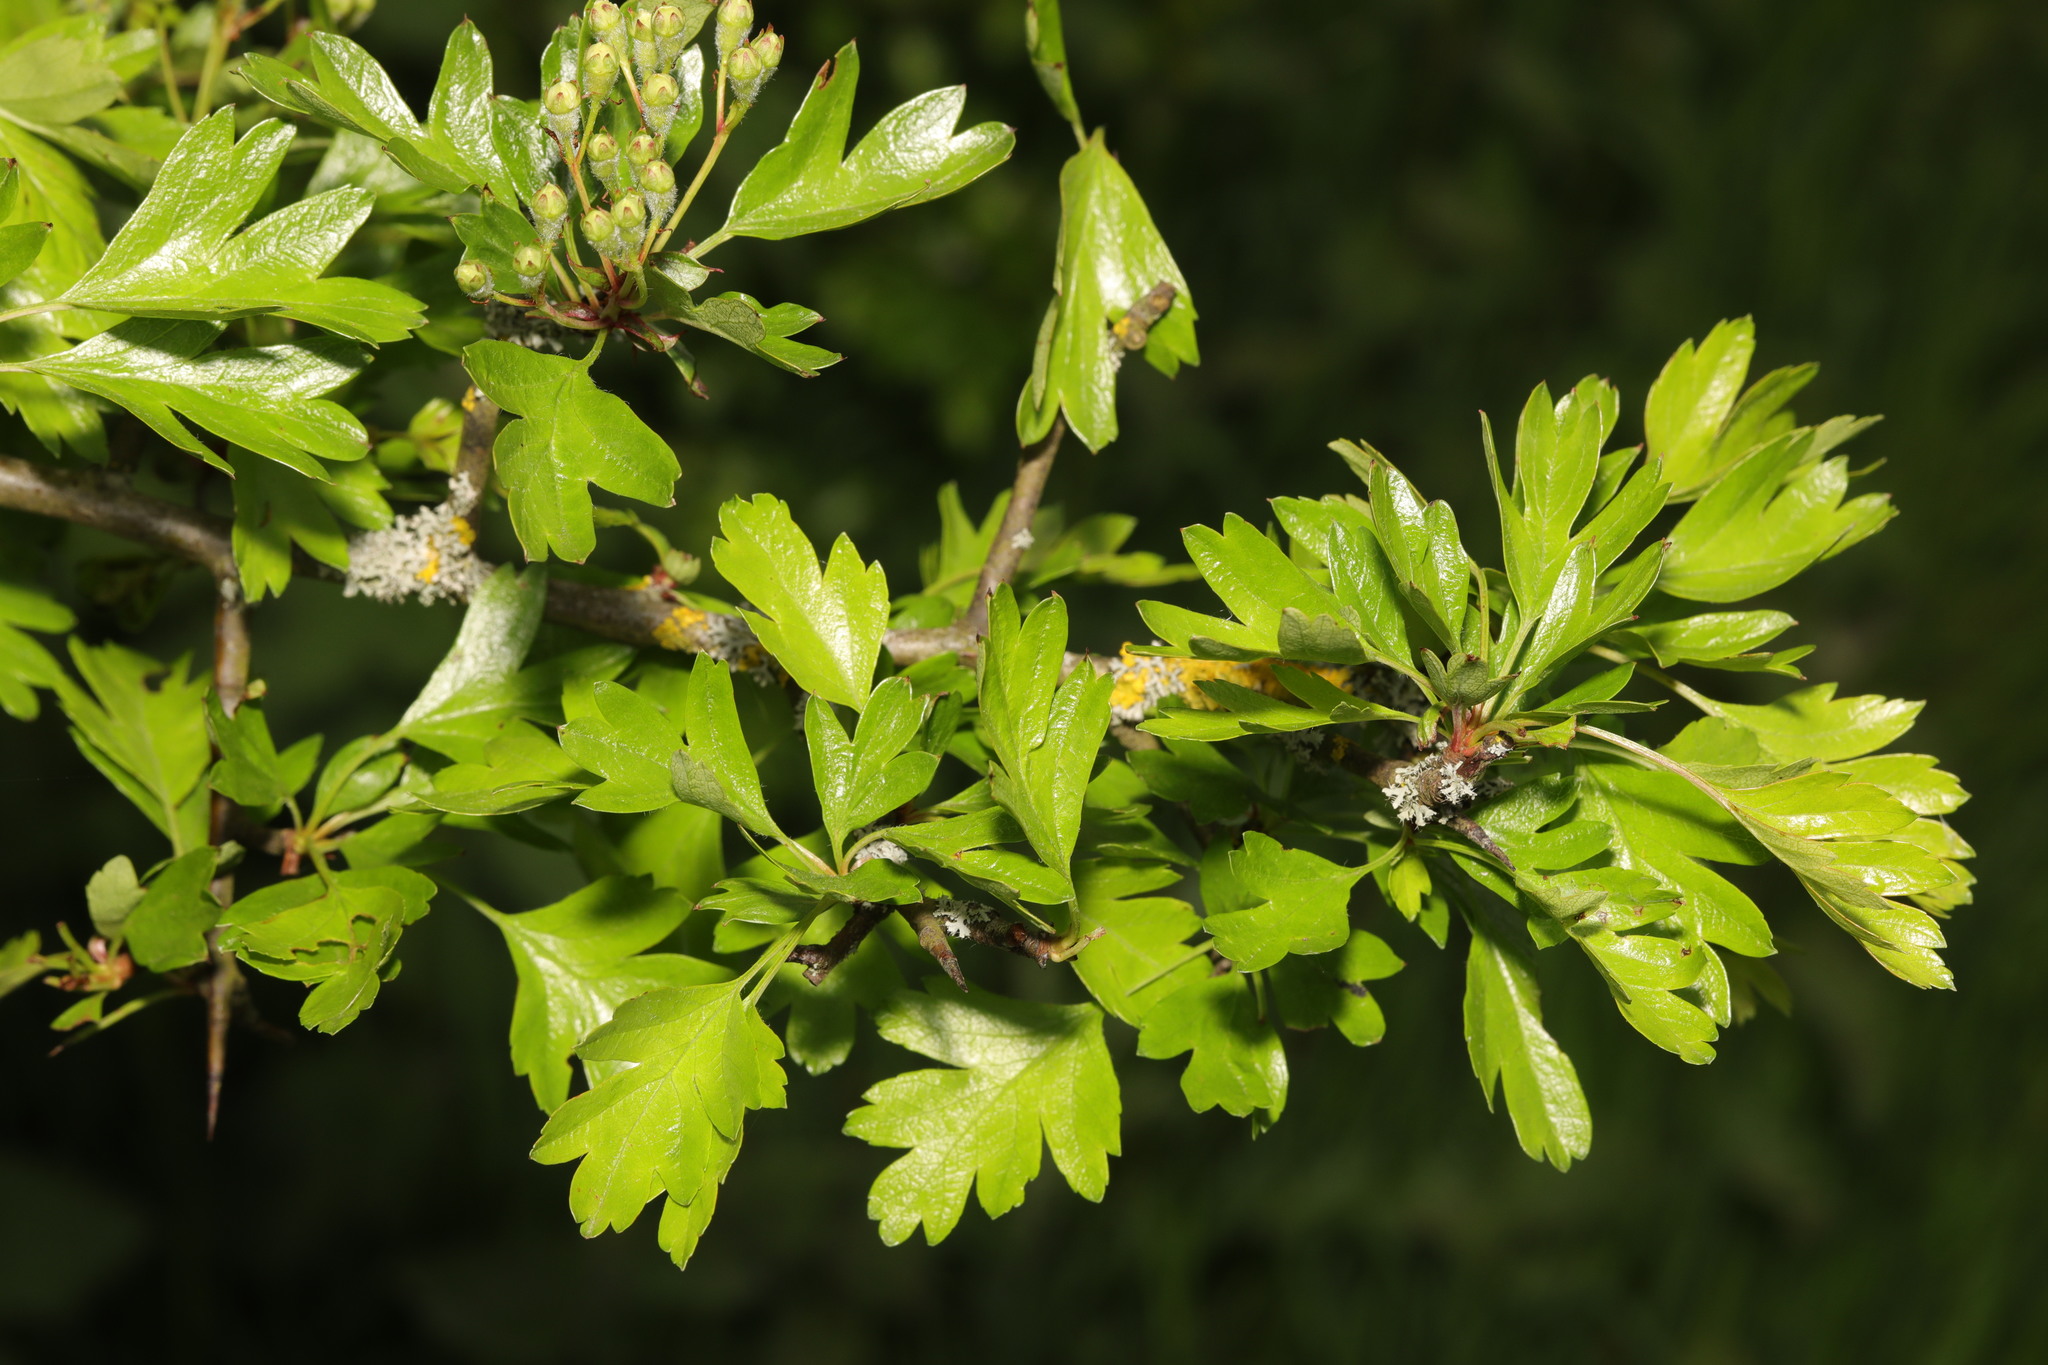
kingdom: Plantae
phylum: Tracheophyta
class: Magnoliopsida
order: Rosales
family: Rosaceae
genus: Crataegus
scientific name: Crataegus monogyna
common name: Hawthorn
